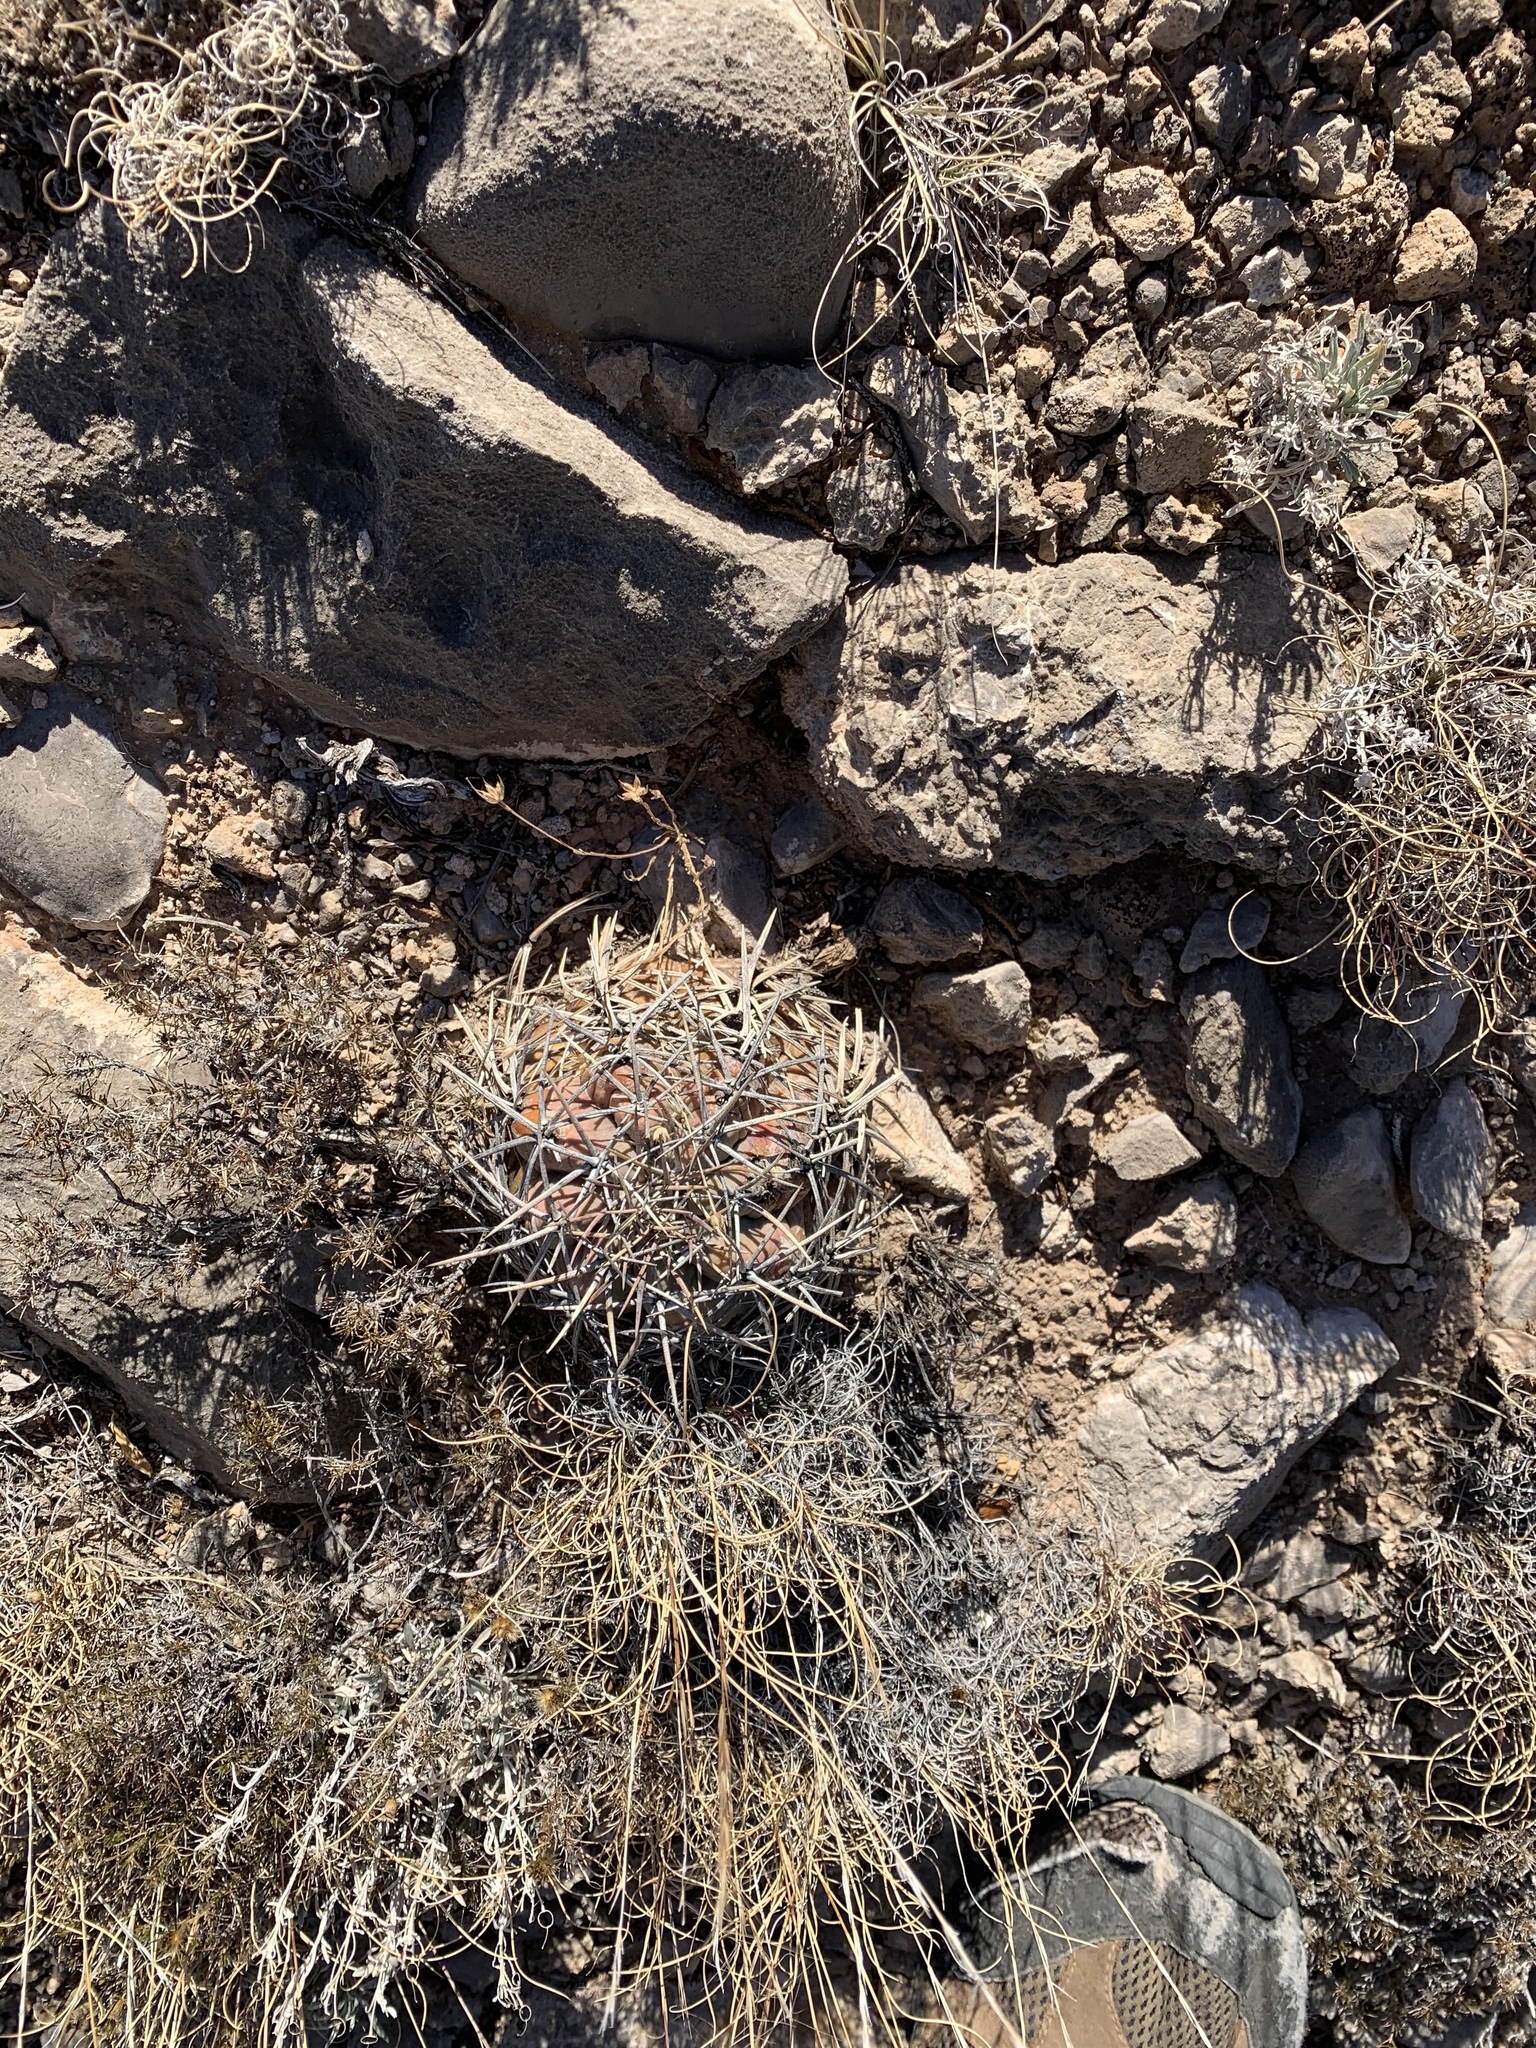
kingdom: Plantae
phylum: Tracheophyta
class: Magnoliopsida
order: Caryophyllales
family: Cactaceae
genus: Echinocactus
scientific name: Echinocactus horizonthalonius
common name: Devilshead
